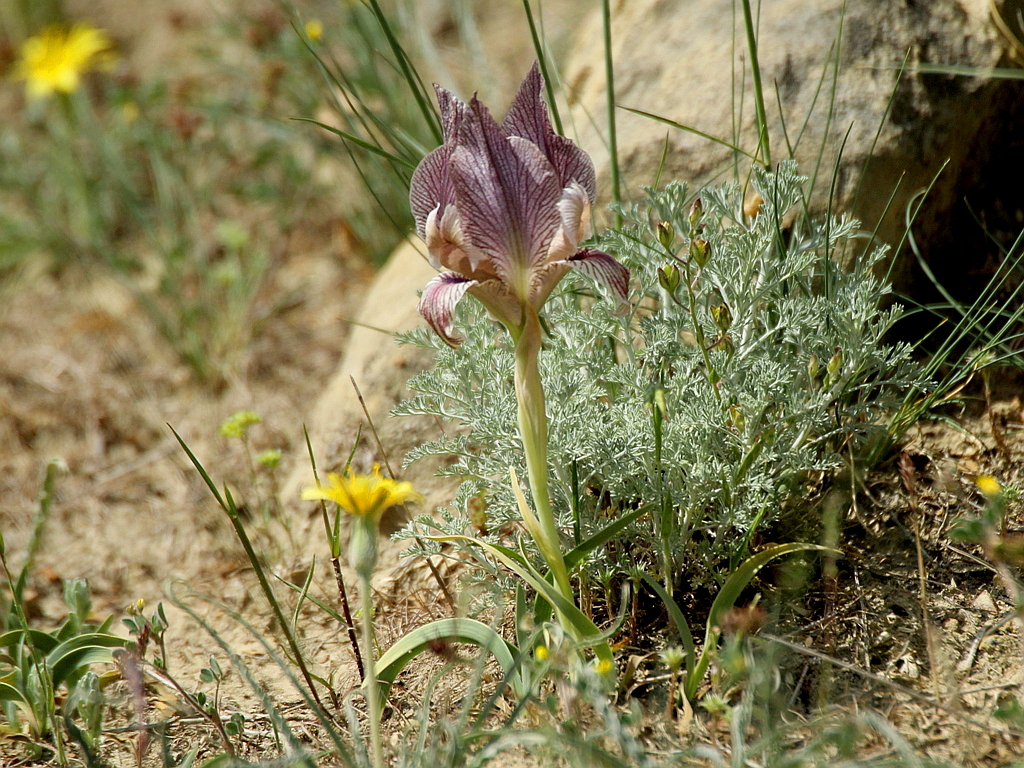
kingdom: Plantae
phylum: Tracheophyta
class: Liliopsida
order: Asparagales
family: Iridaceae
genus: Iris
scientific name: Iris acutiloba
